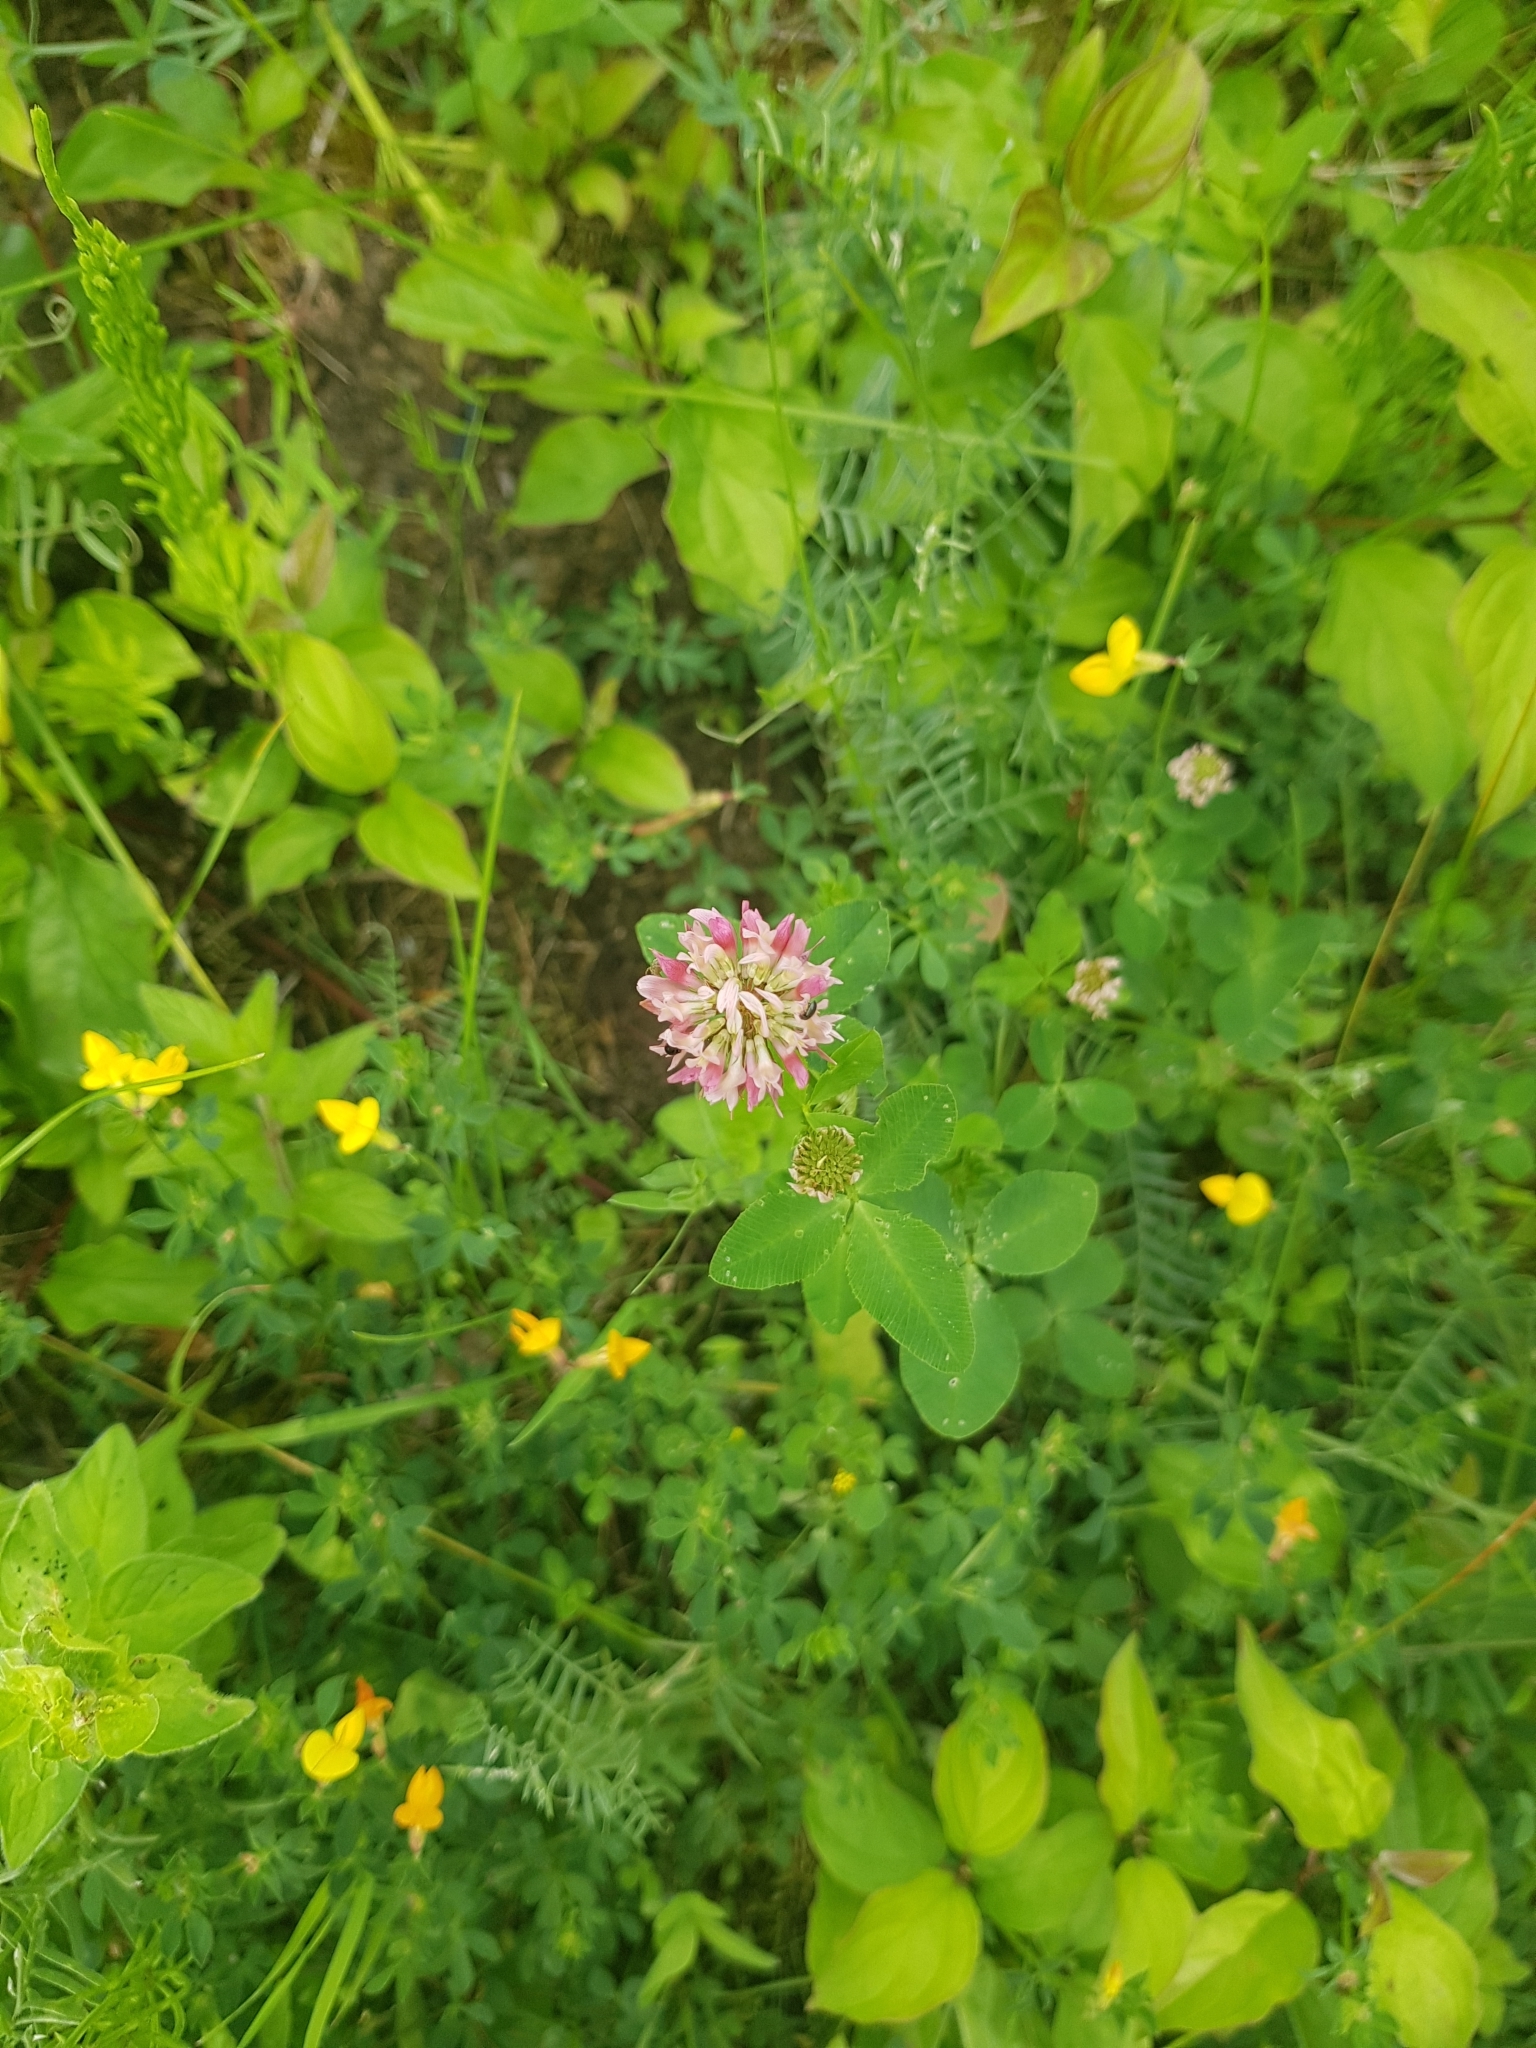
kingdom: Plantae
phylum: Tracheophyta
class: Magnoliopsida
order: Fabales
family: Fabaceae
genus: Trifolium
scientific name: Trifolium hybridum
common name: Alsike clover
